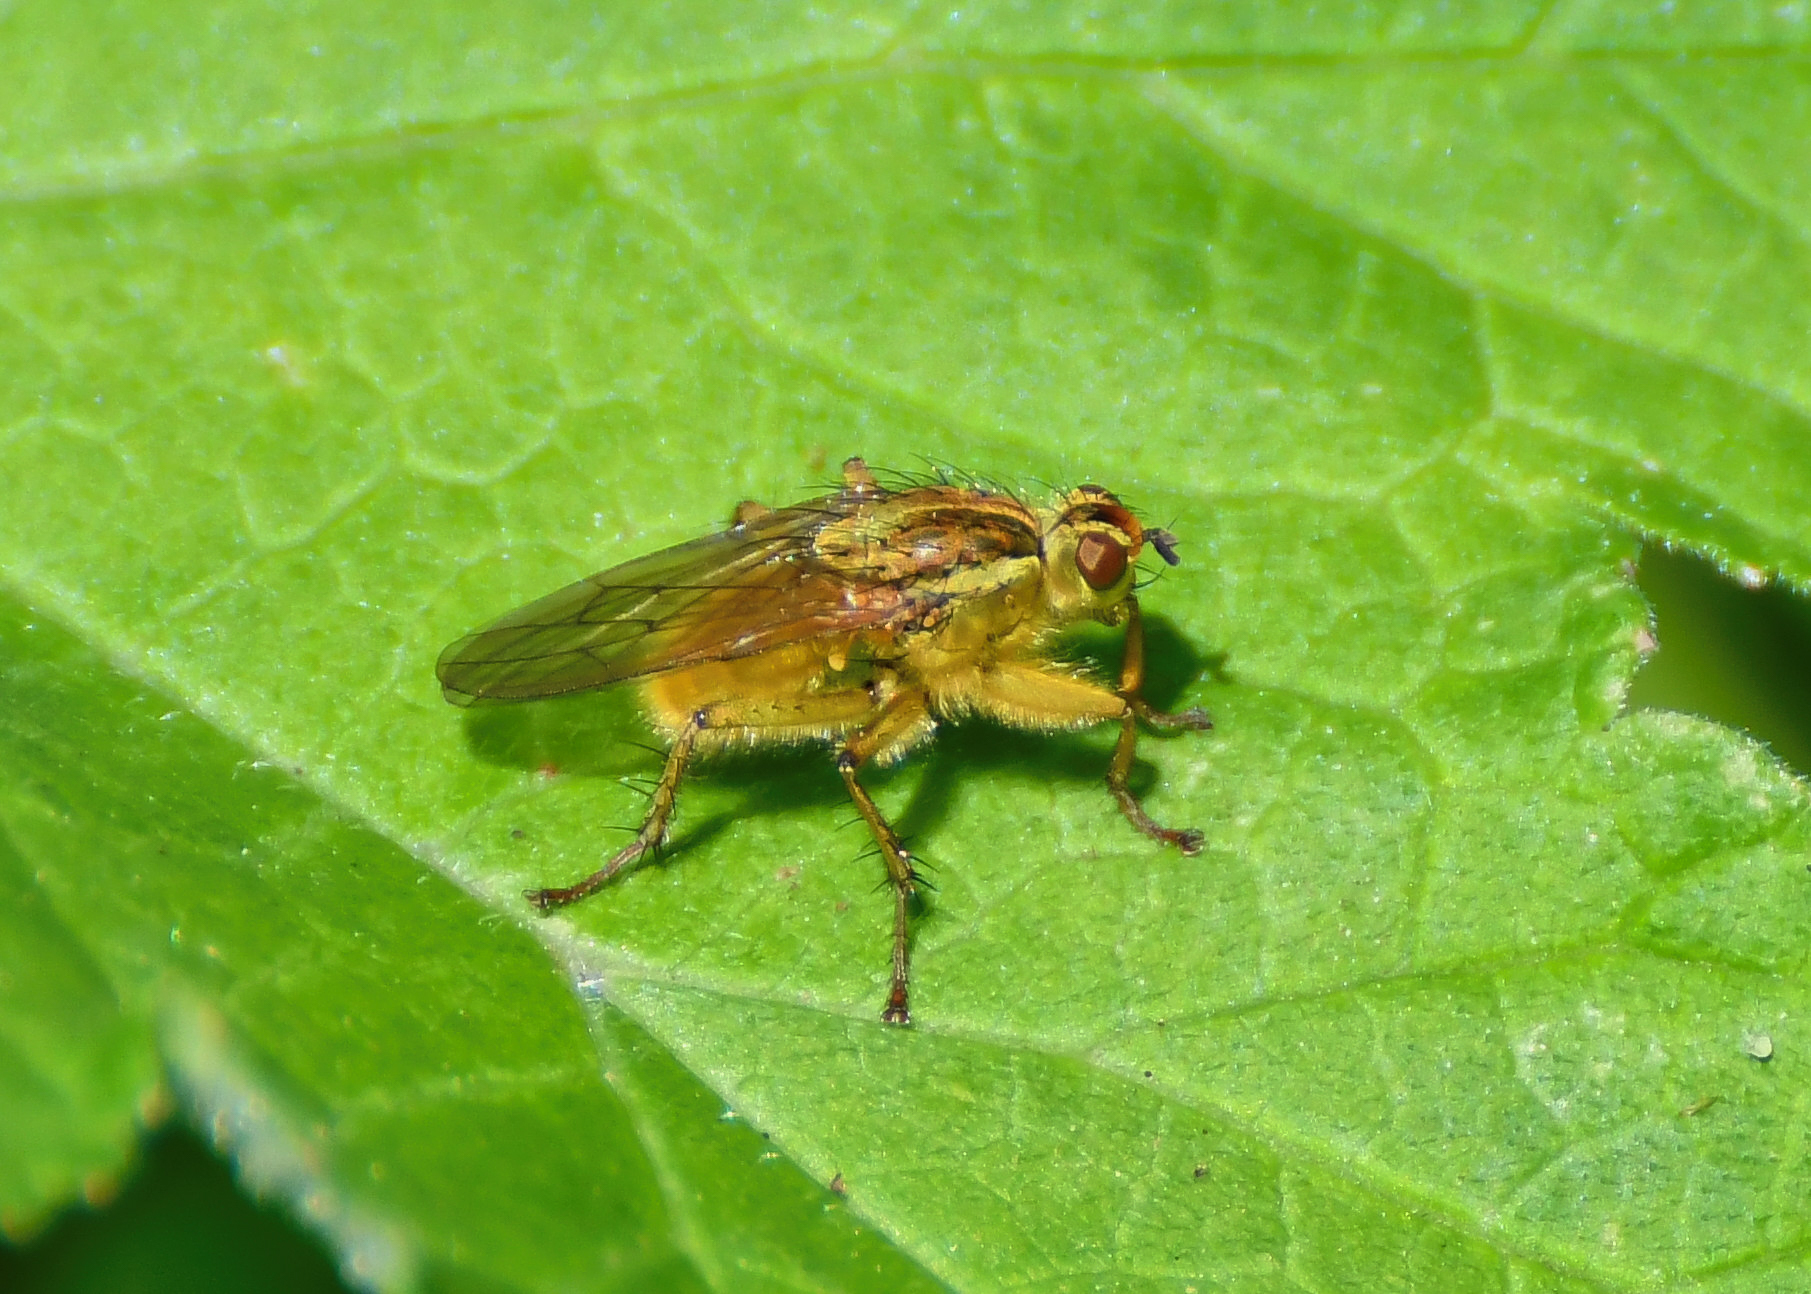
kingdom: Animalia
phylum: Arthropoda
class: Insecta
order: Diptera
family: Scathophagidae
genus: Scathophaga
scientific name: Scathophaga stercoraria
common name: Yellow dung fly
